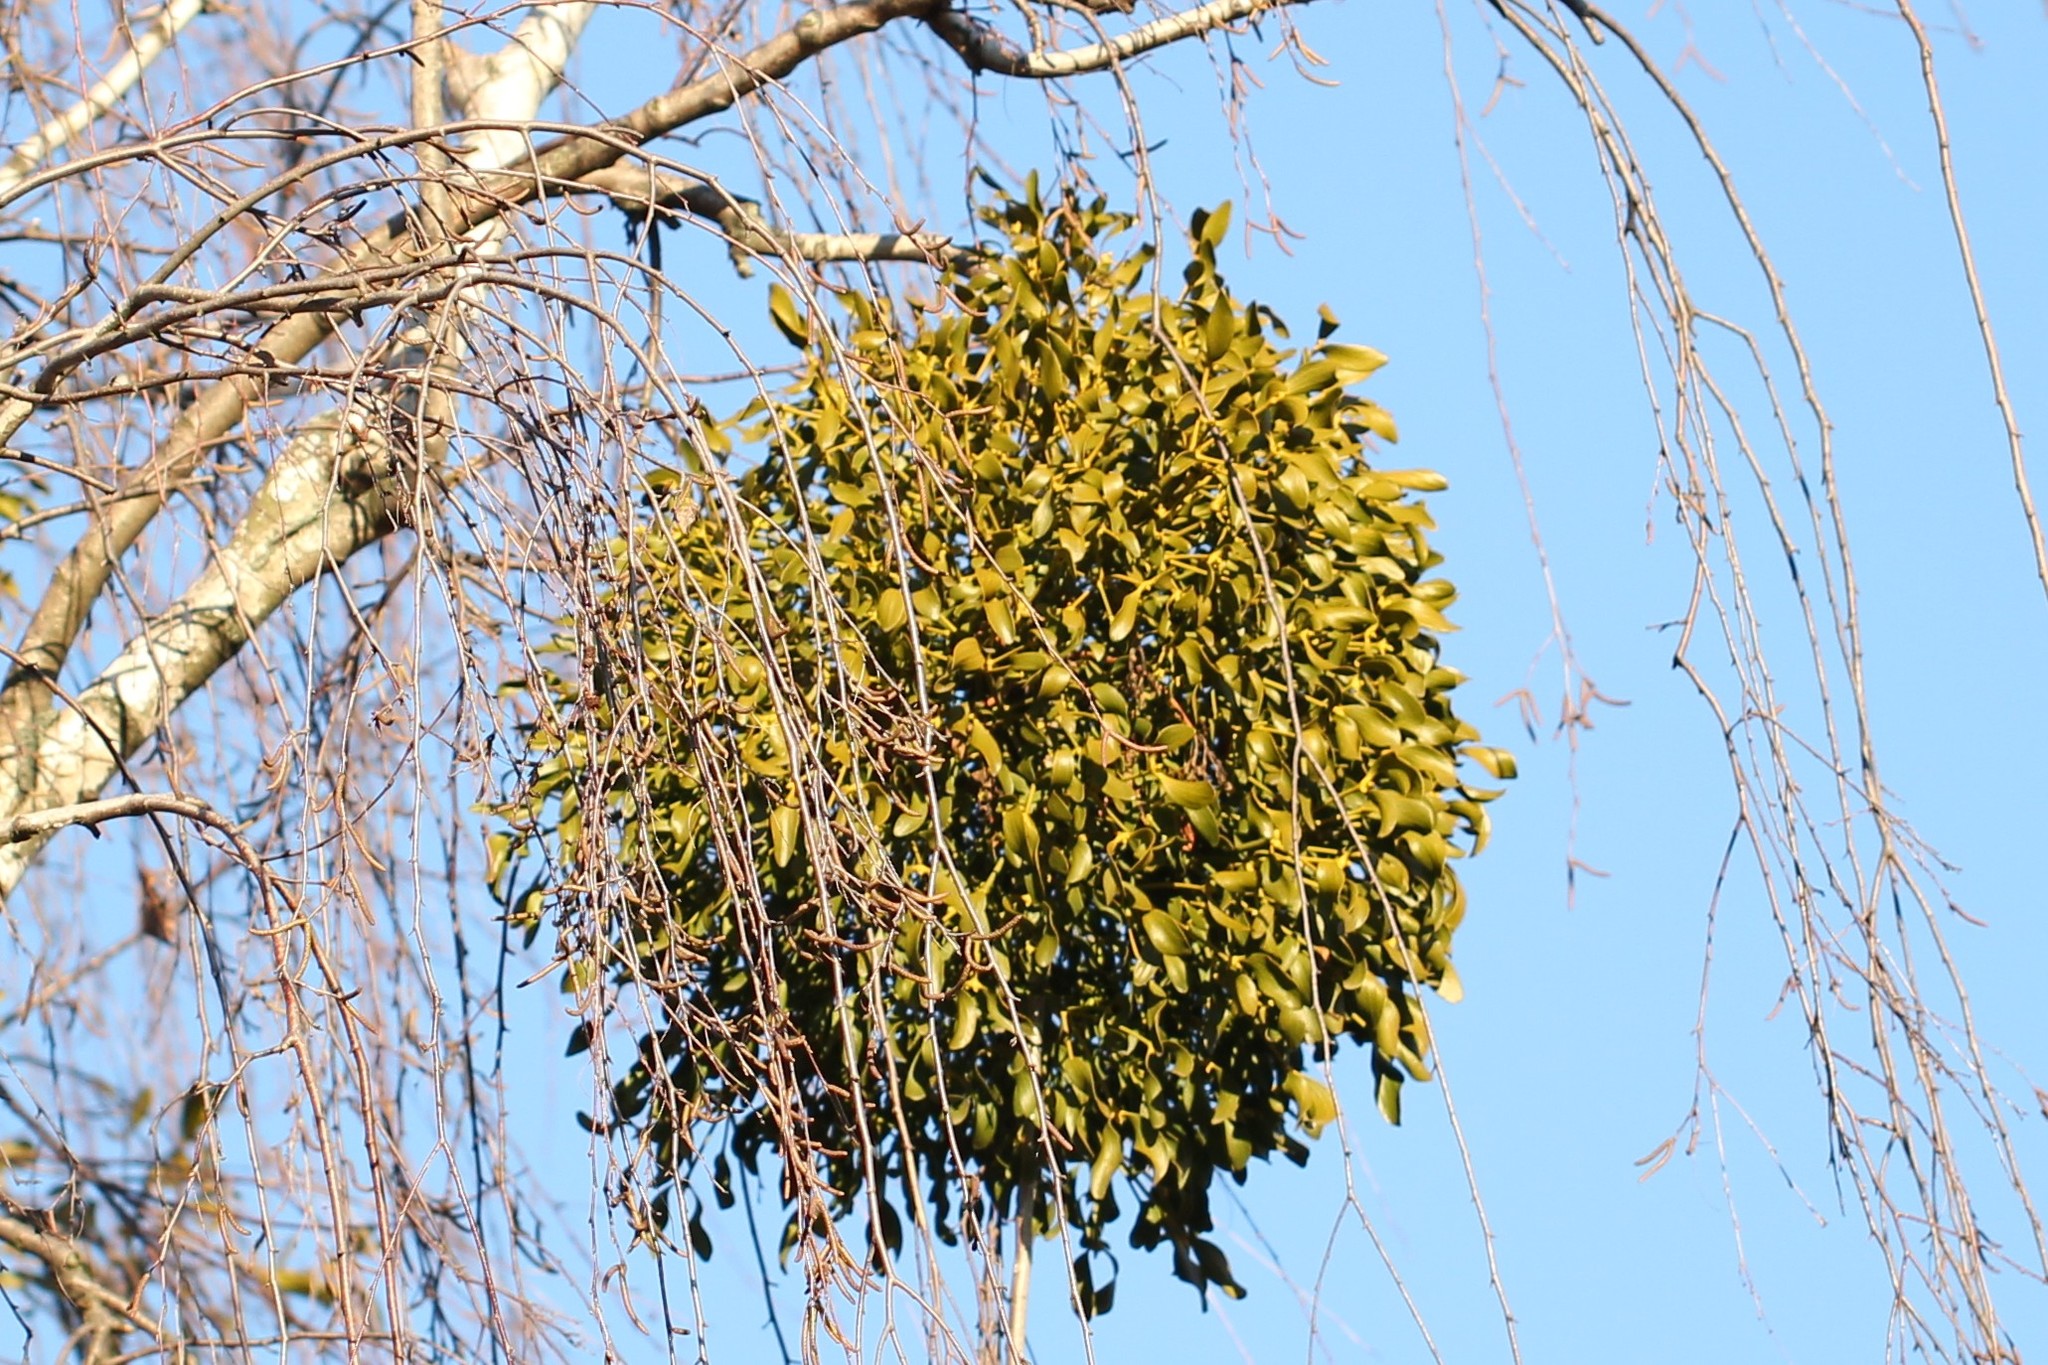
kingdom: Plantae
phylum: Tracheophyta
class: Magnoliopsida
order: Santalales
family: Viscaceae
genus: Viscum
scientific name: Viscum album
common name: Mistletoe
